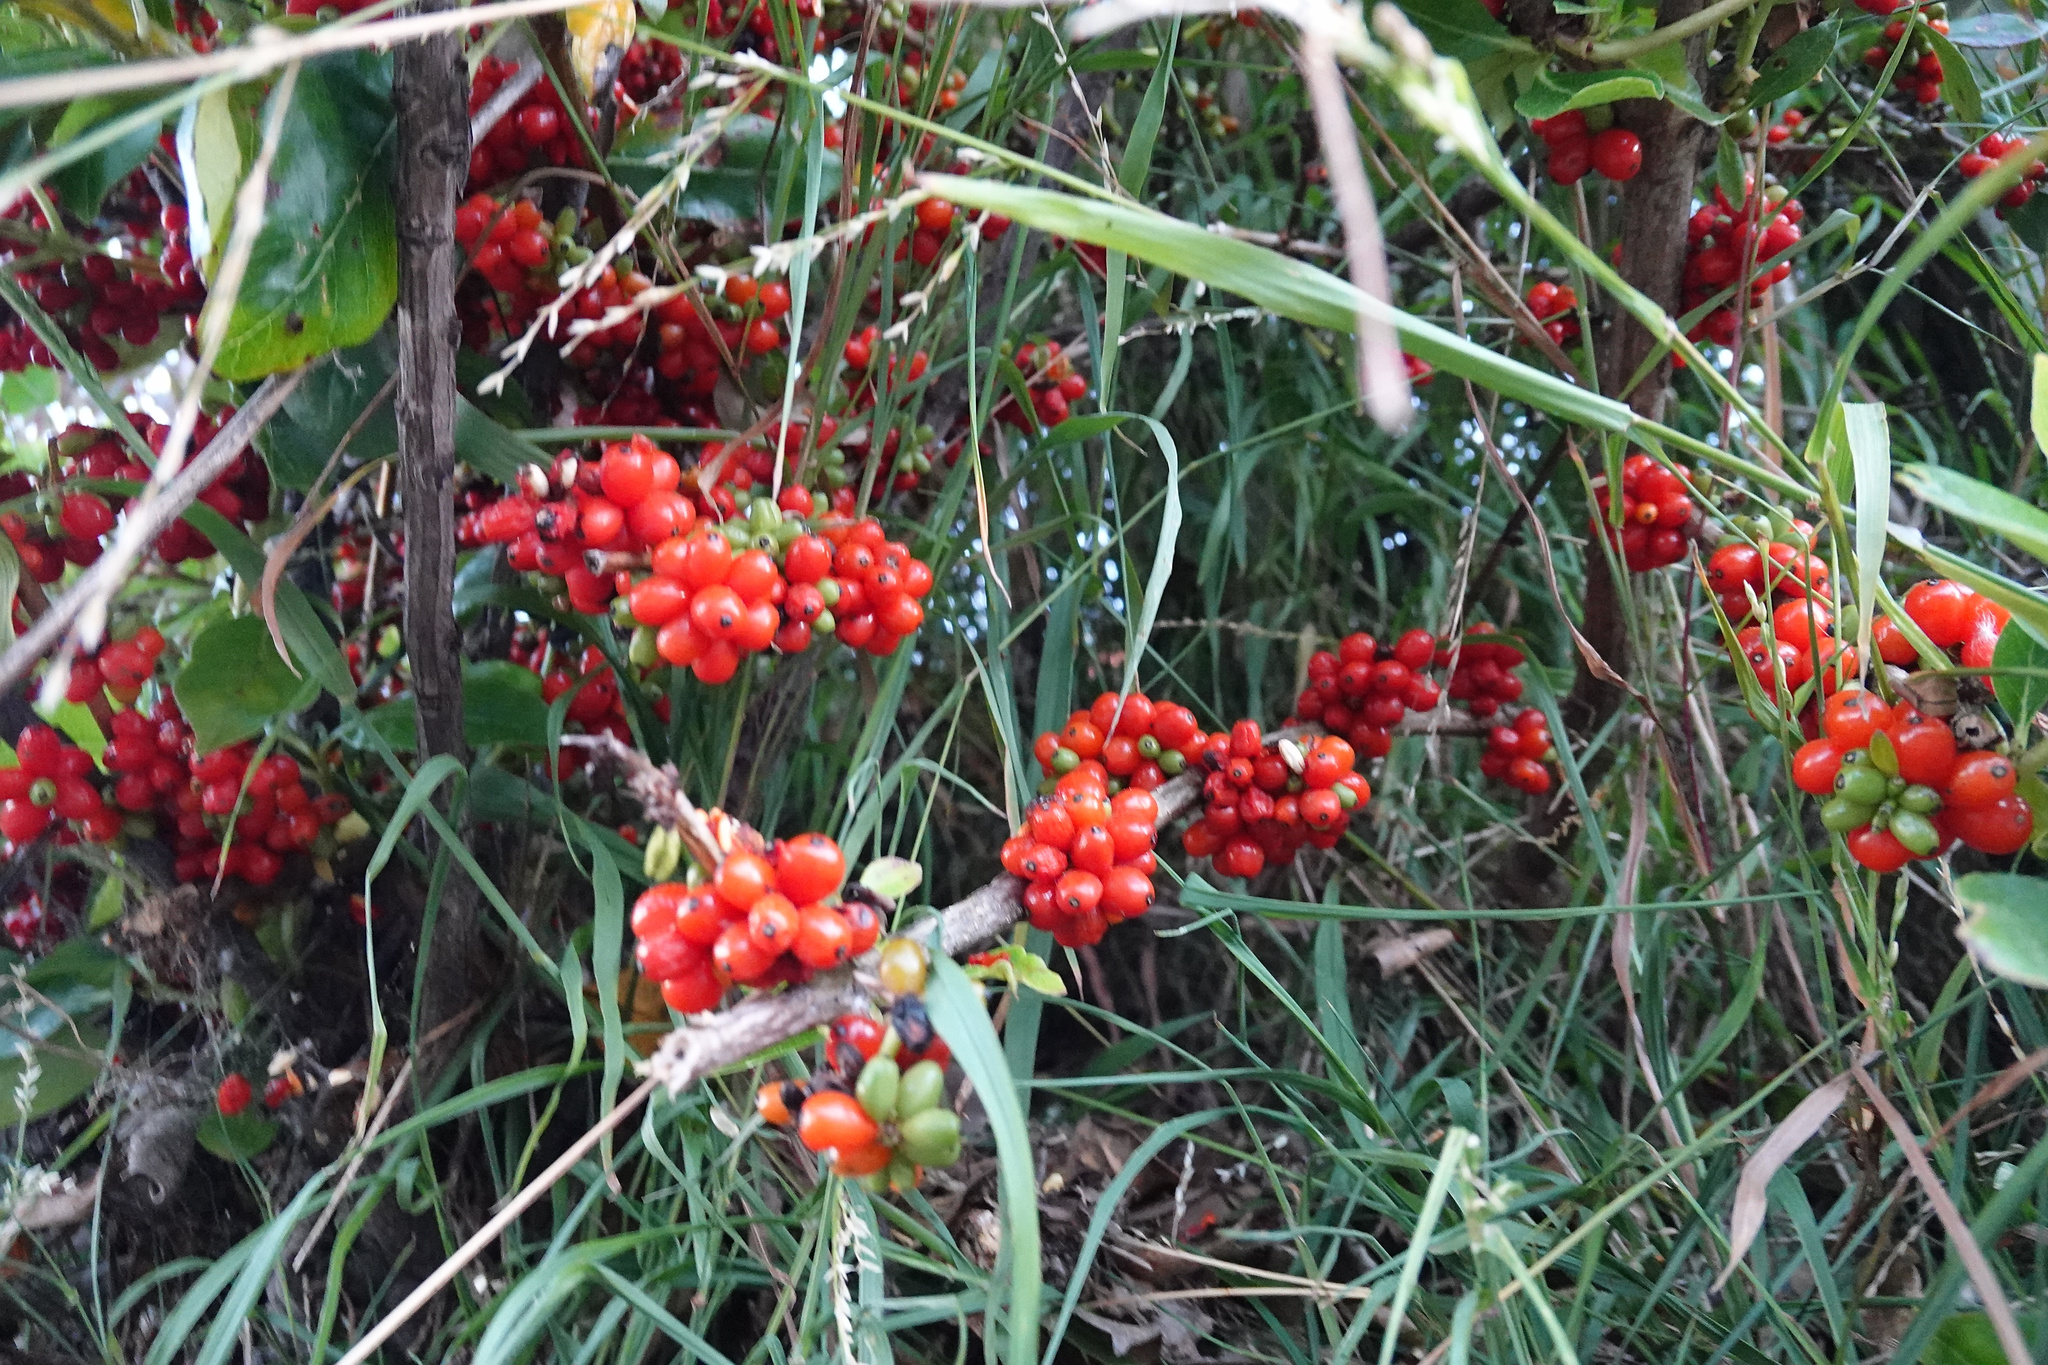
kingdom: Plantae
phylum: Tracheophyta
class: Magnoliopsida
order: Gentianales
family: Rubiaceae
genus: Coprosma
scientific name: Coprosma robusta
